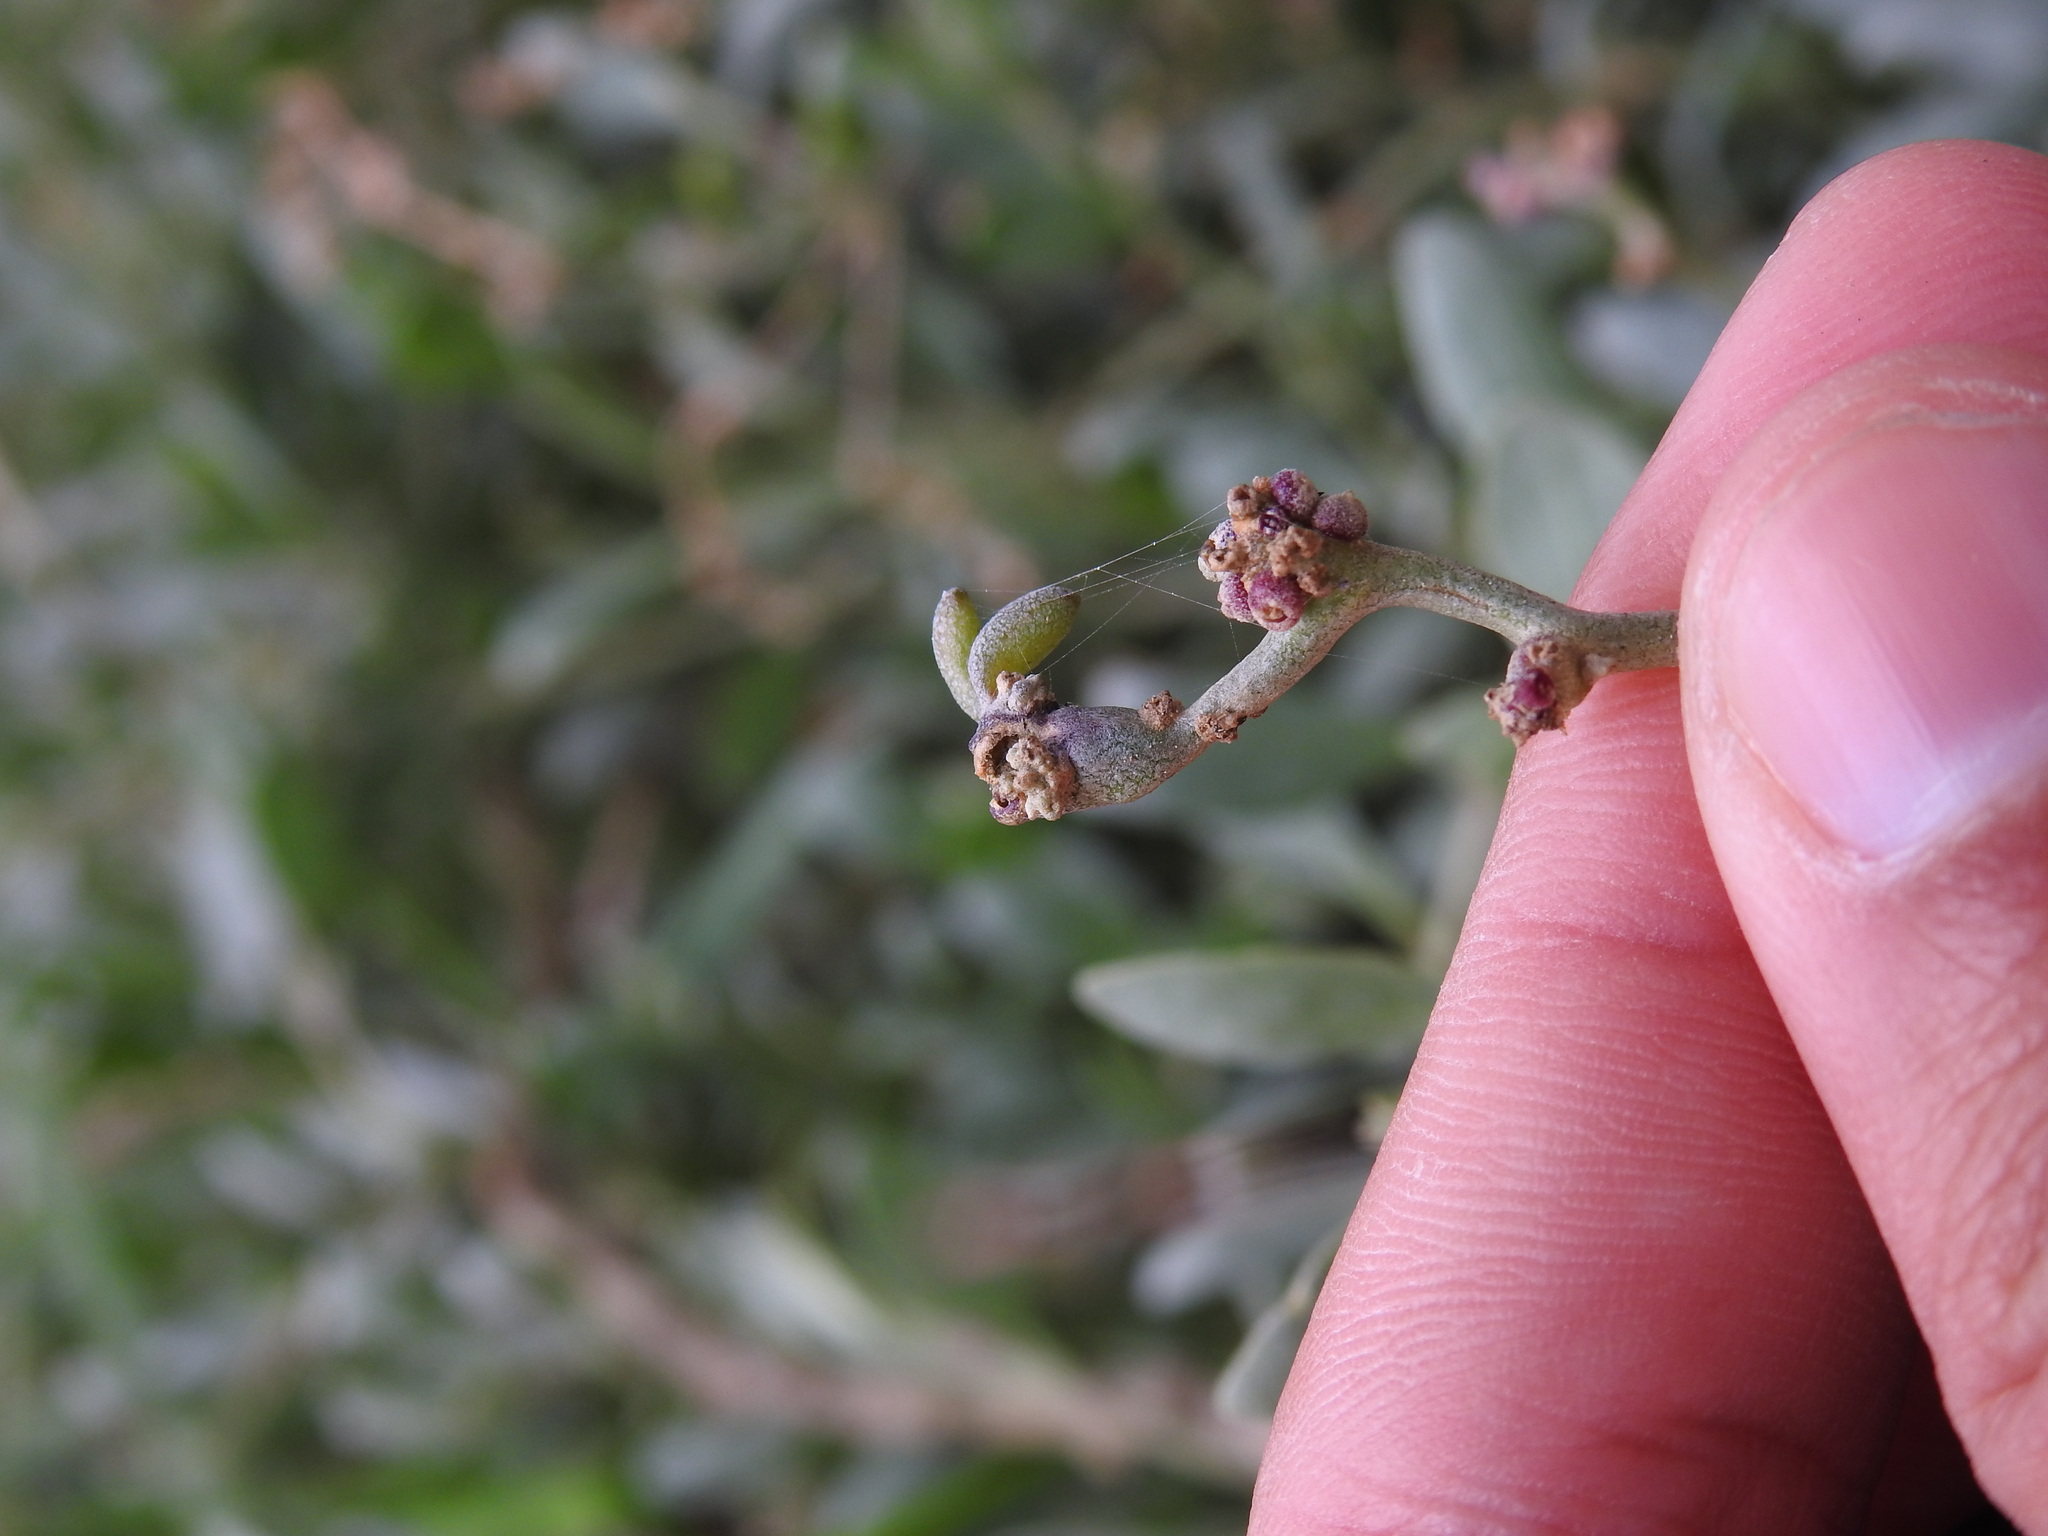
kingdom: Animalia
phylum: Arthropoda
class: Arachnida
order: Trombidiformes
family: Eriophyidae
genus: Eriophyes
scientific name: Eriophyes obiones
